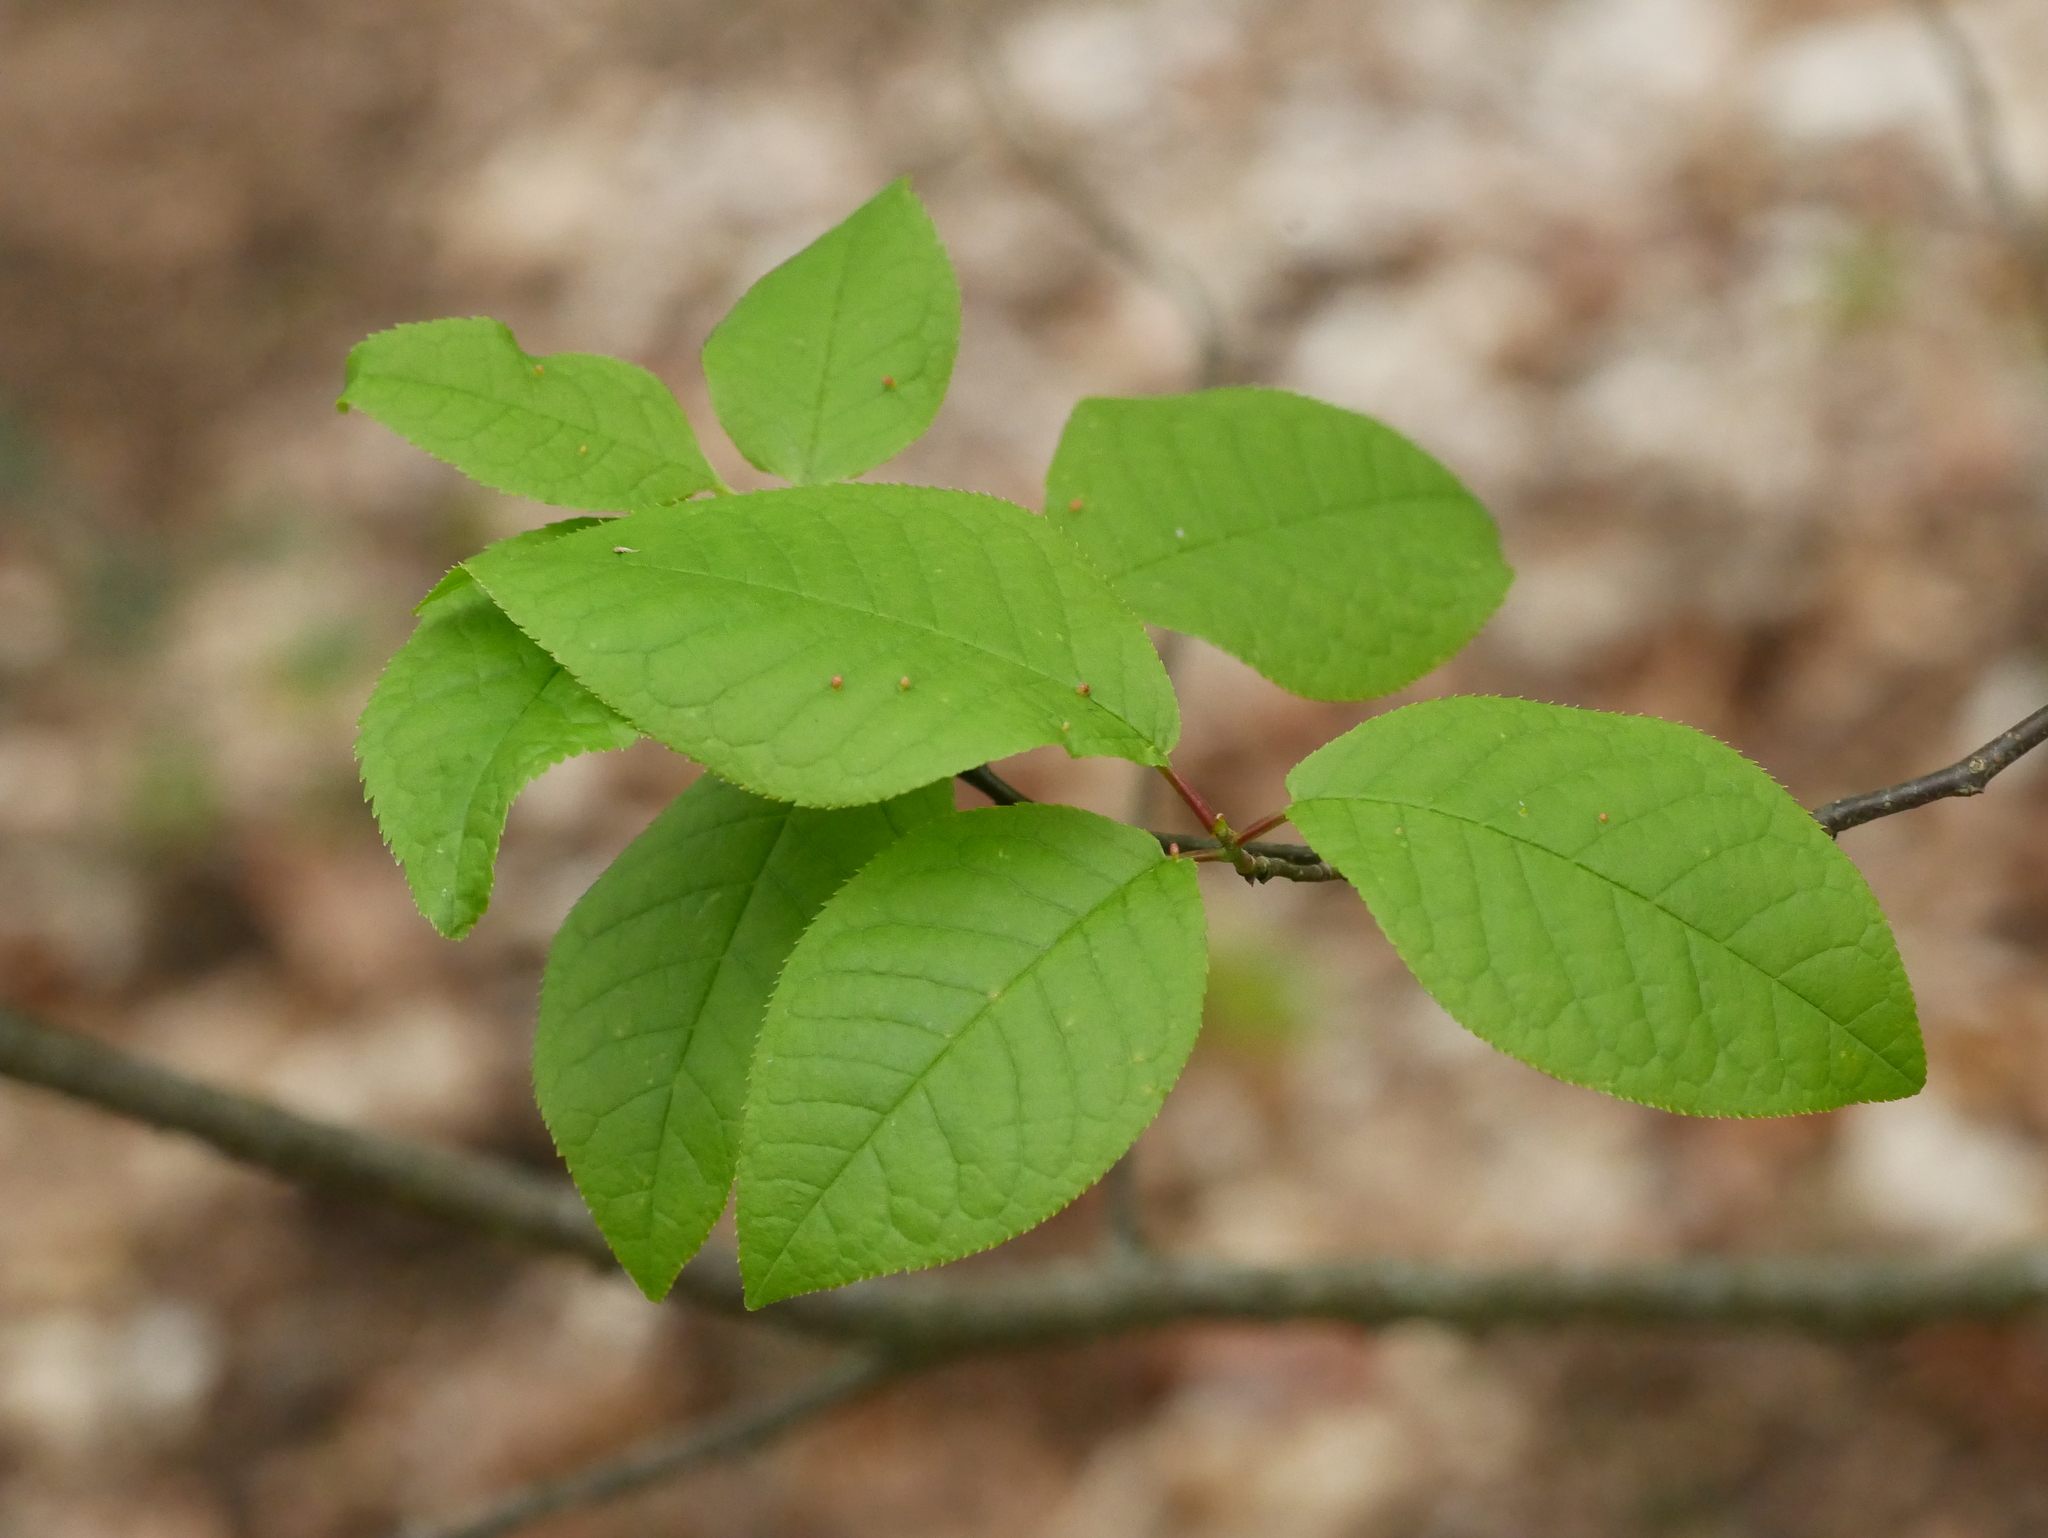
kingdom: Plantae
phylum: Tracheophyta
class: Magnoliopsida
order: Rosales
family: Rosaceae
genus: Prunus
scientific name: Prunus padus
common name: Bird cherry
